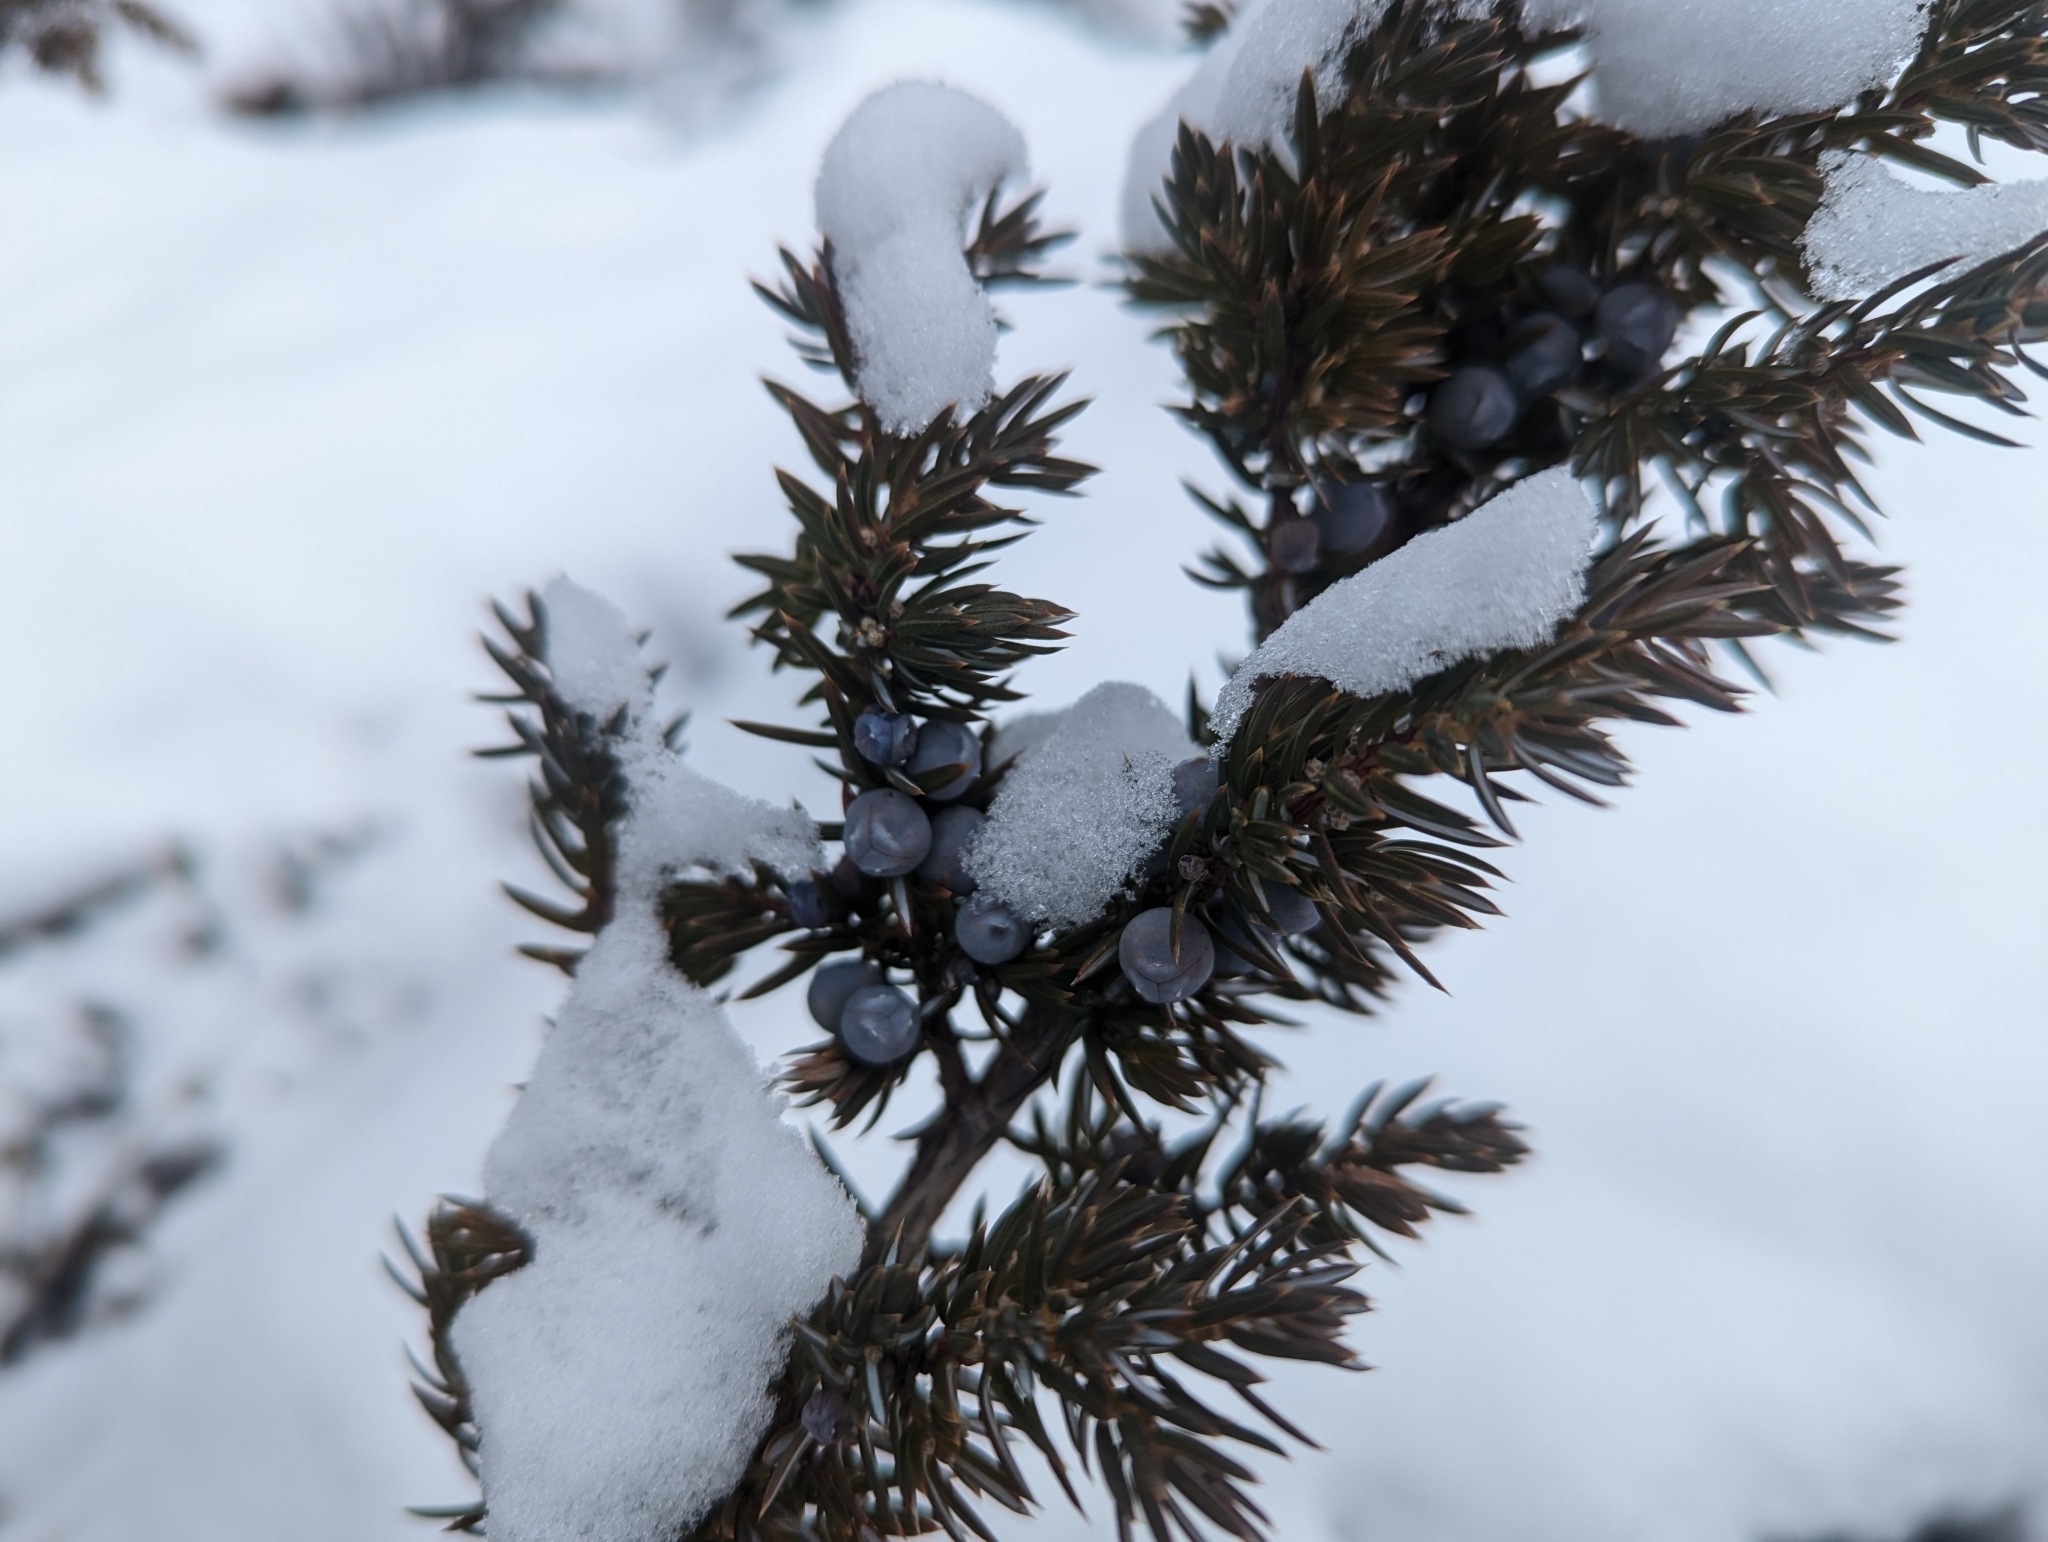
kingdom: Plantae
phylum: Tracheophyta
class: Pinopsida
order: Pinales
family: Cupressaceae
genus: Juniperus
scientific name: Juniperus communis
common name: Common juniper
